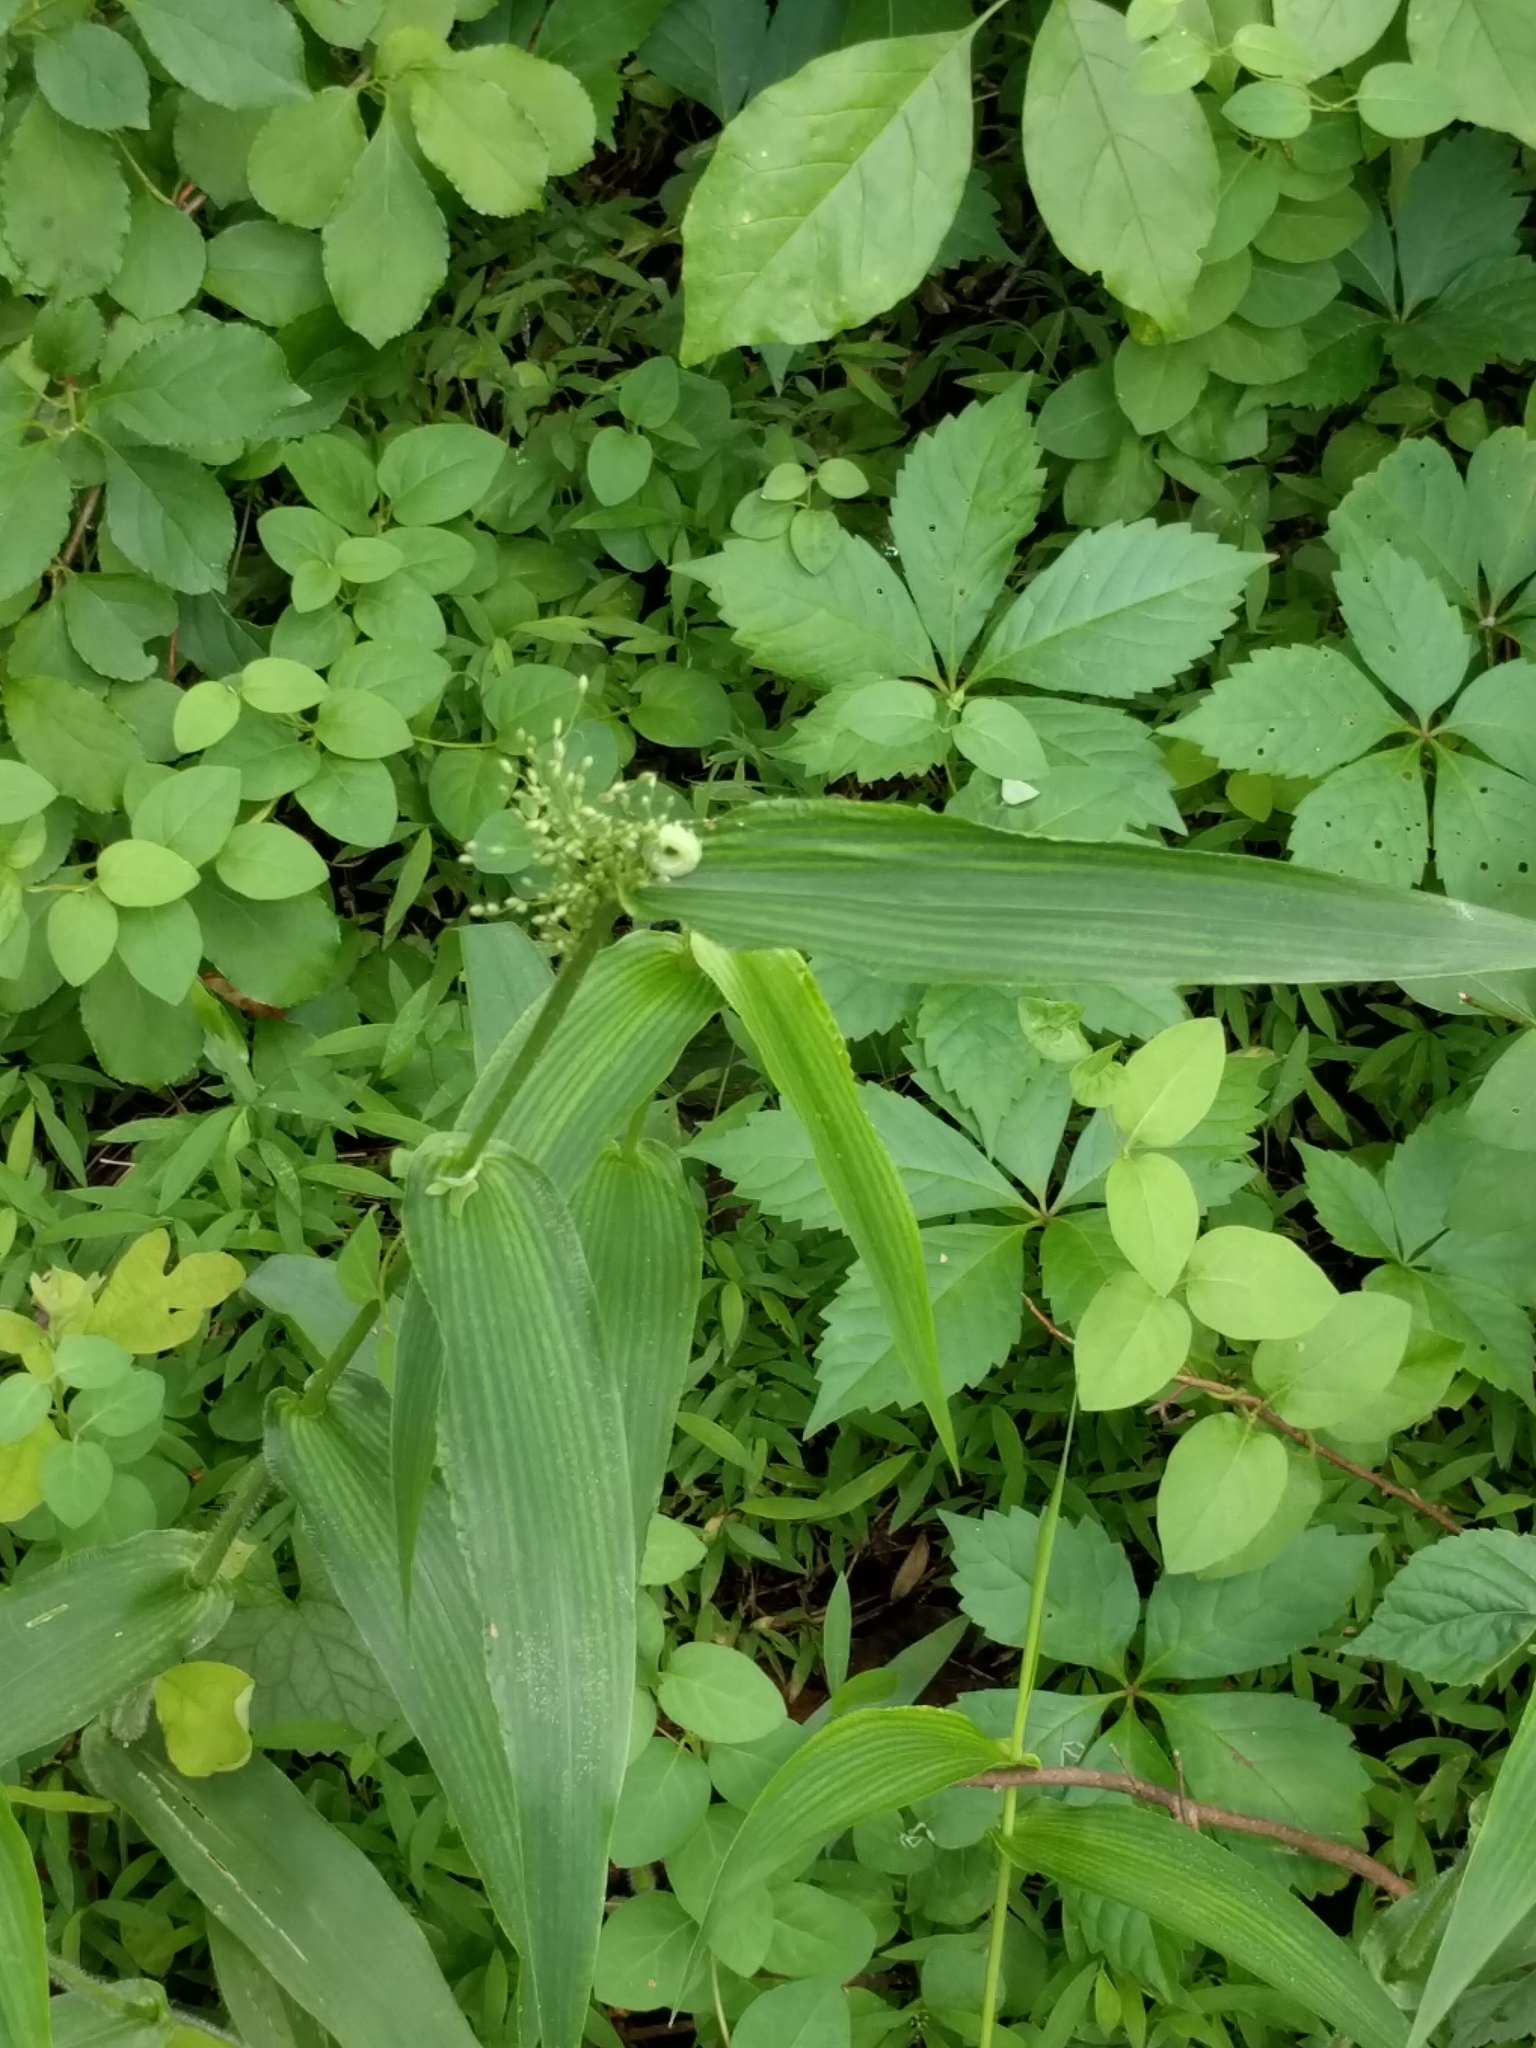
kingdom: Plantae
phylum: Tracheophyta
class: Liliopsida
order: Poales
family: Poaceae
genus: Dichanthelium
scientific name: Dichanthelium clandestinum
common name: Deer-tongue grass
